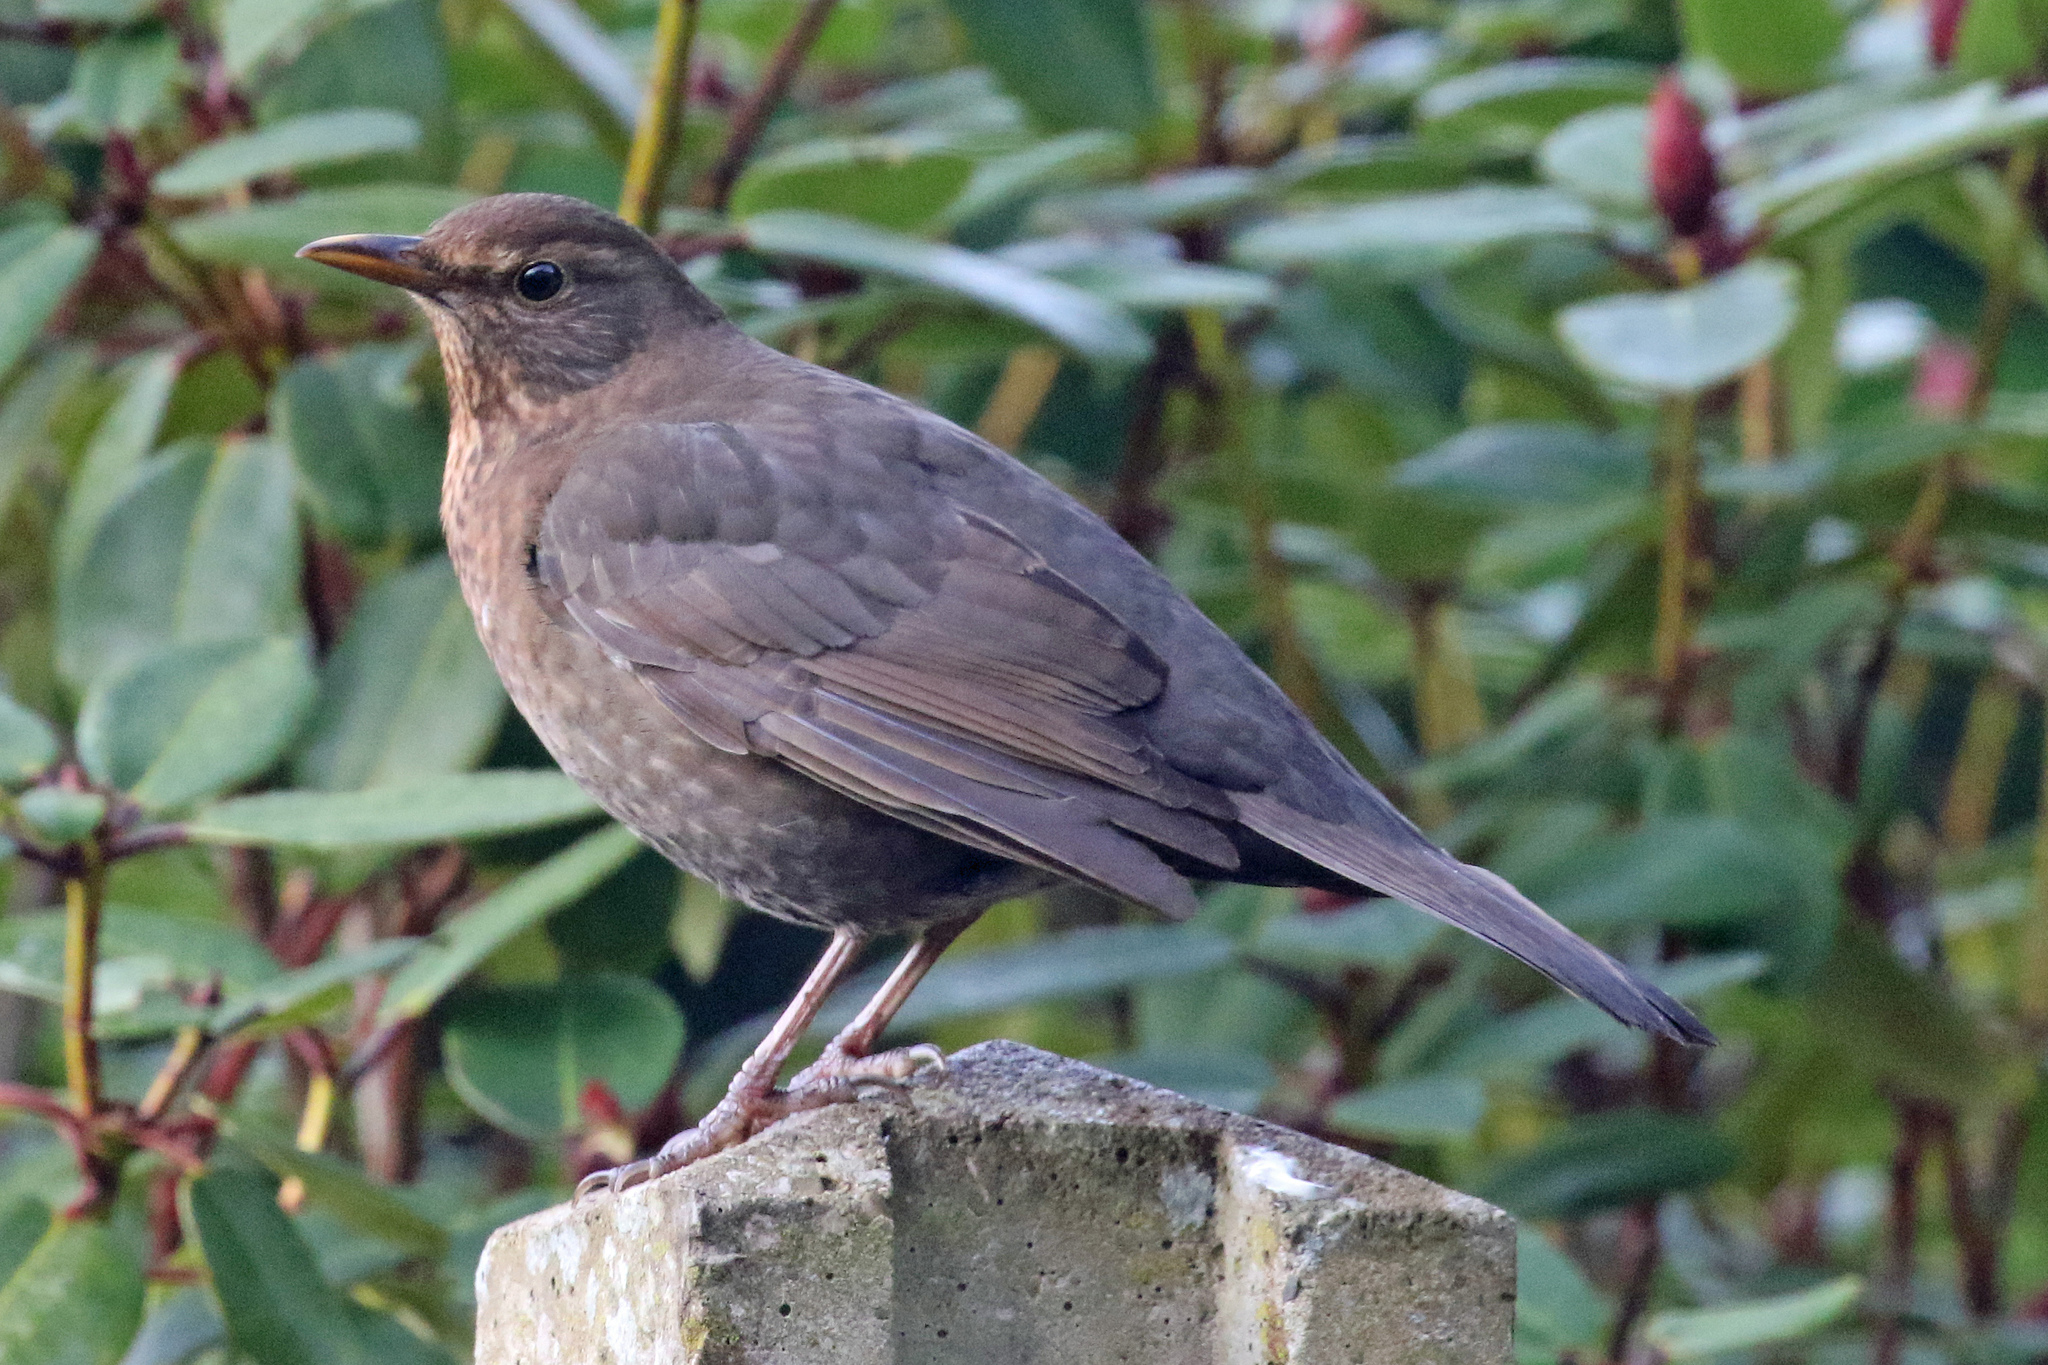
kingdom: Animalia
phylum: Chordata
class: Aves
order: Passeriformes
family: Turdidae
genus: Turdus
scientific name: Turdus merula
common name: Common blackbird
